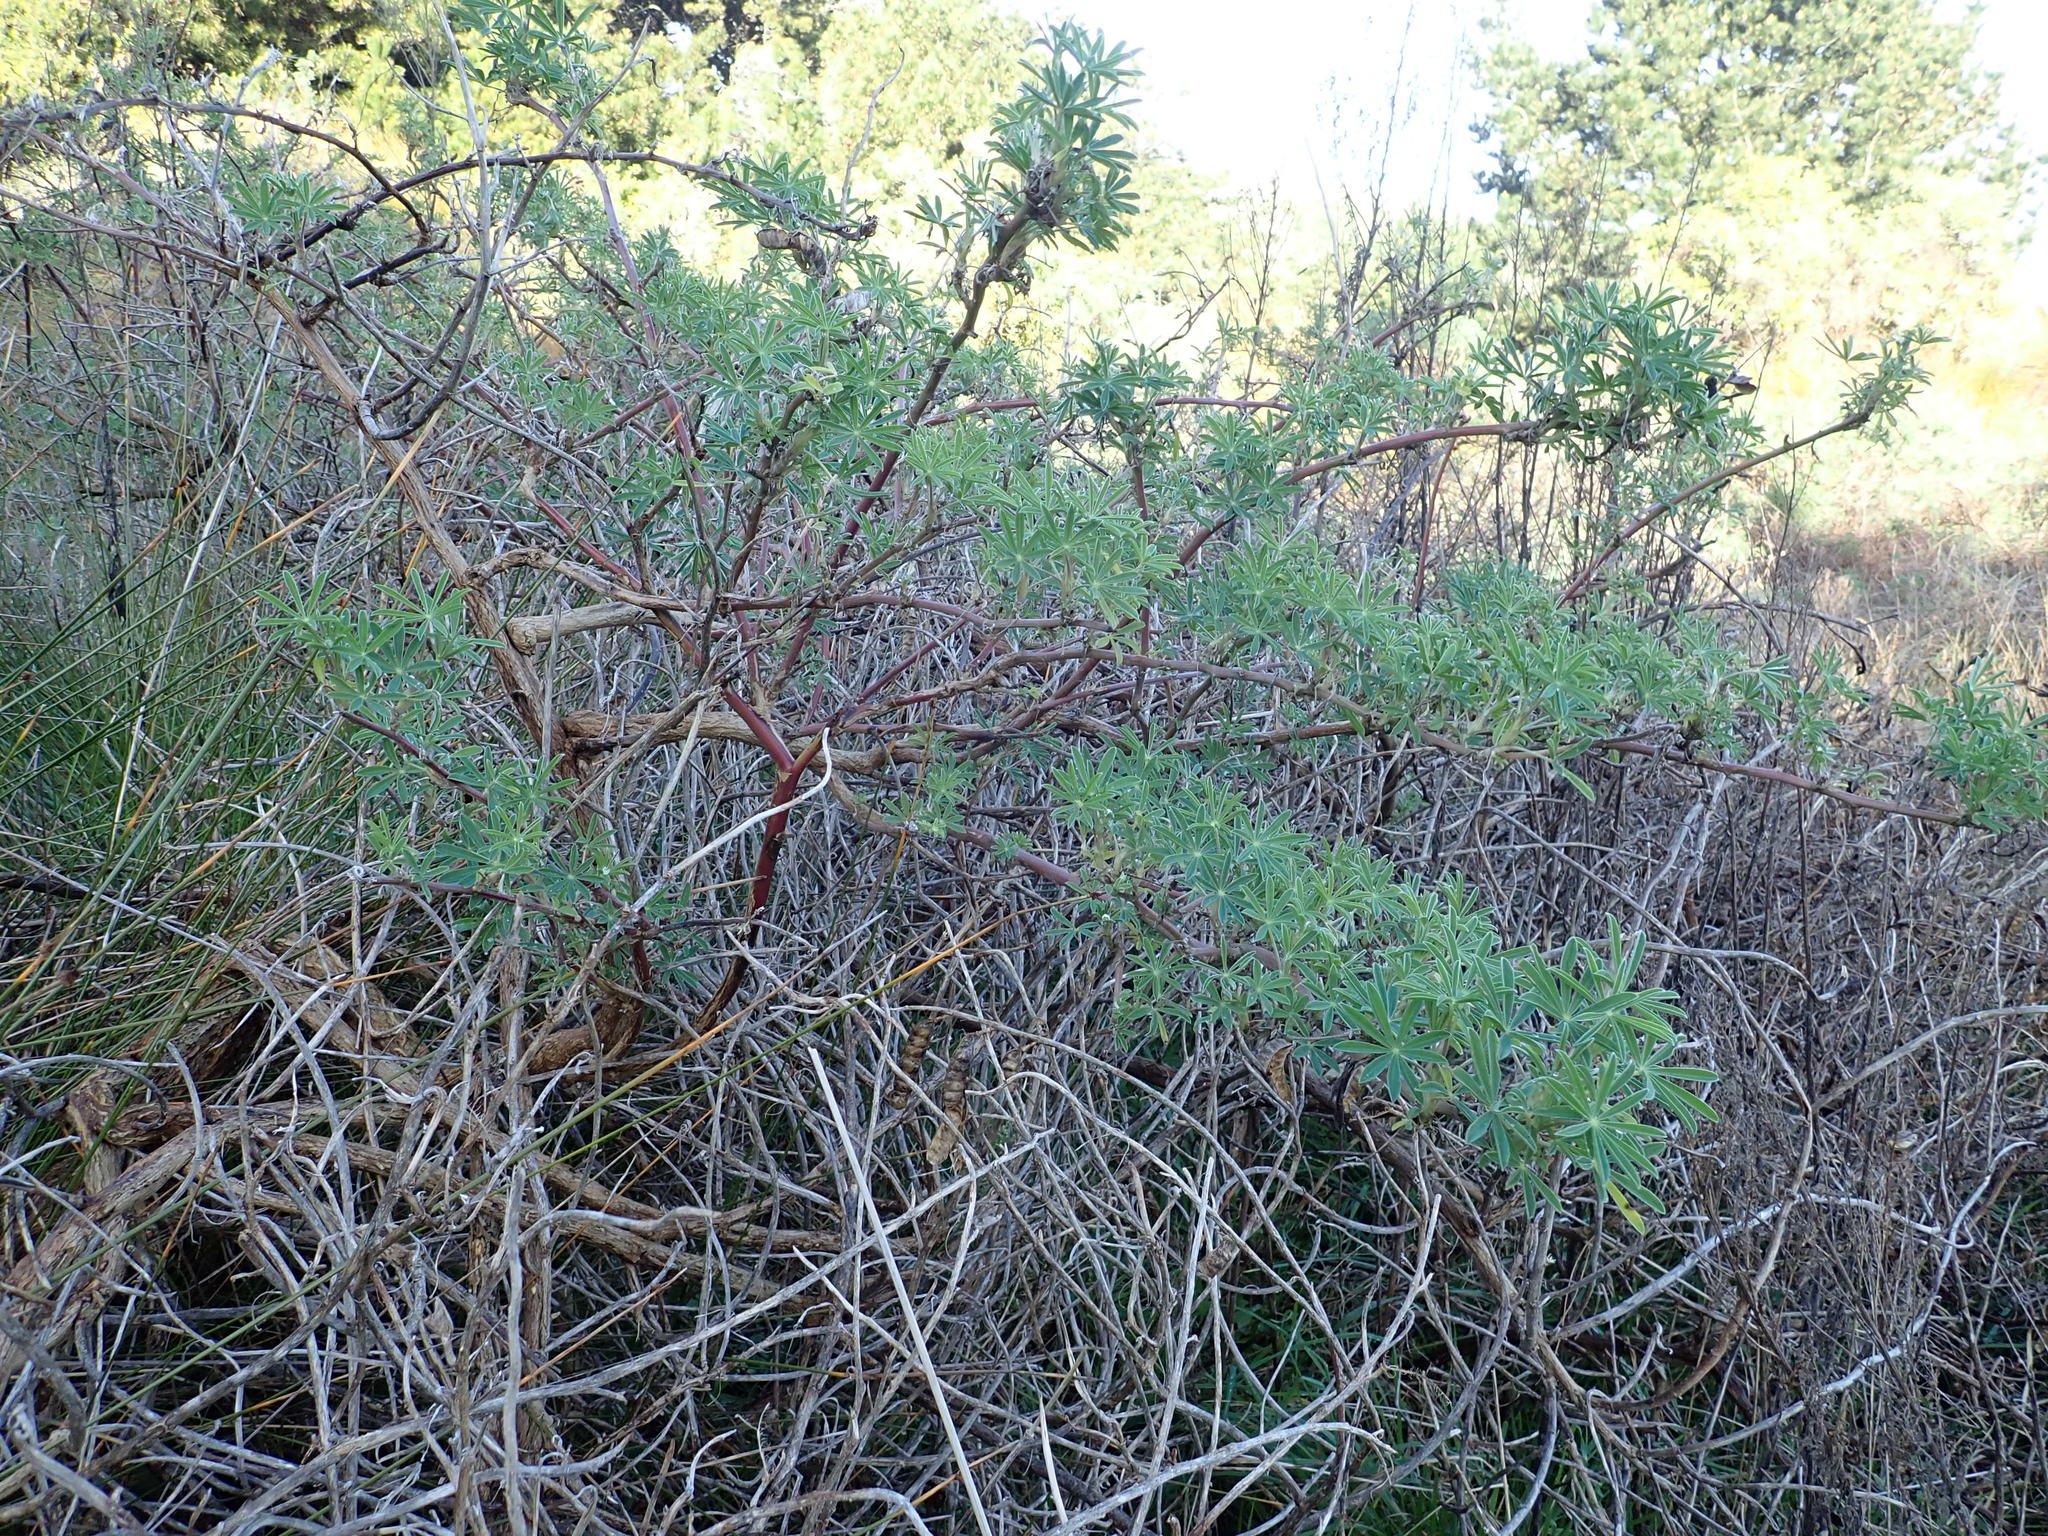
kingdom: Plantae
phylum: Tracheophyta
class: Magnoliopsida
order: Fabales
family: Fabaceae
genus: Lupinus
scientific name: Lupinus arboreus
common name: Yellow bush lupine
